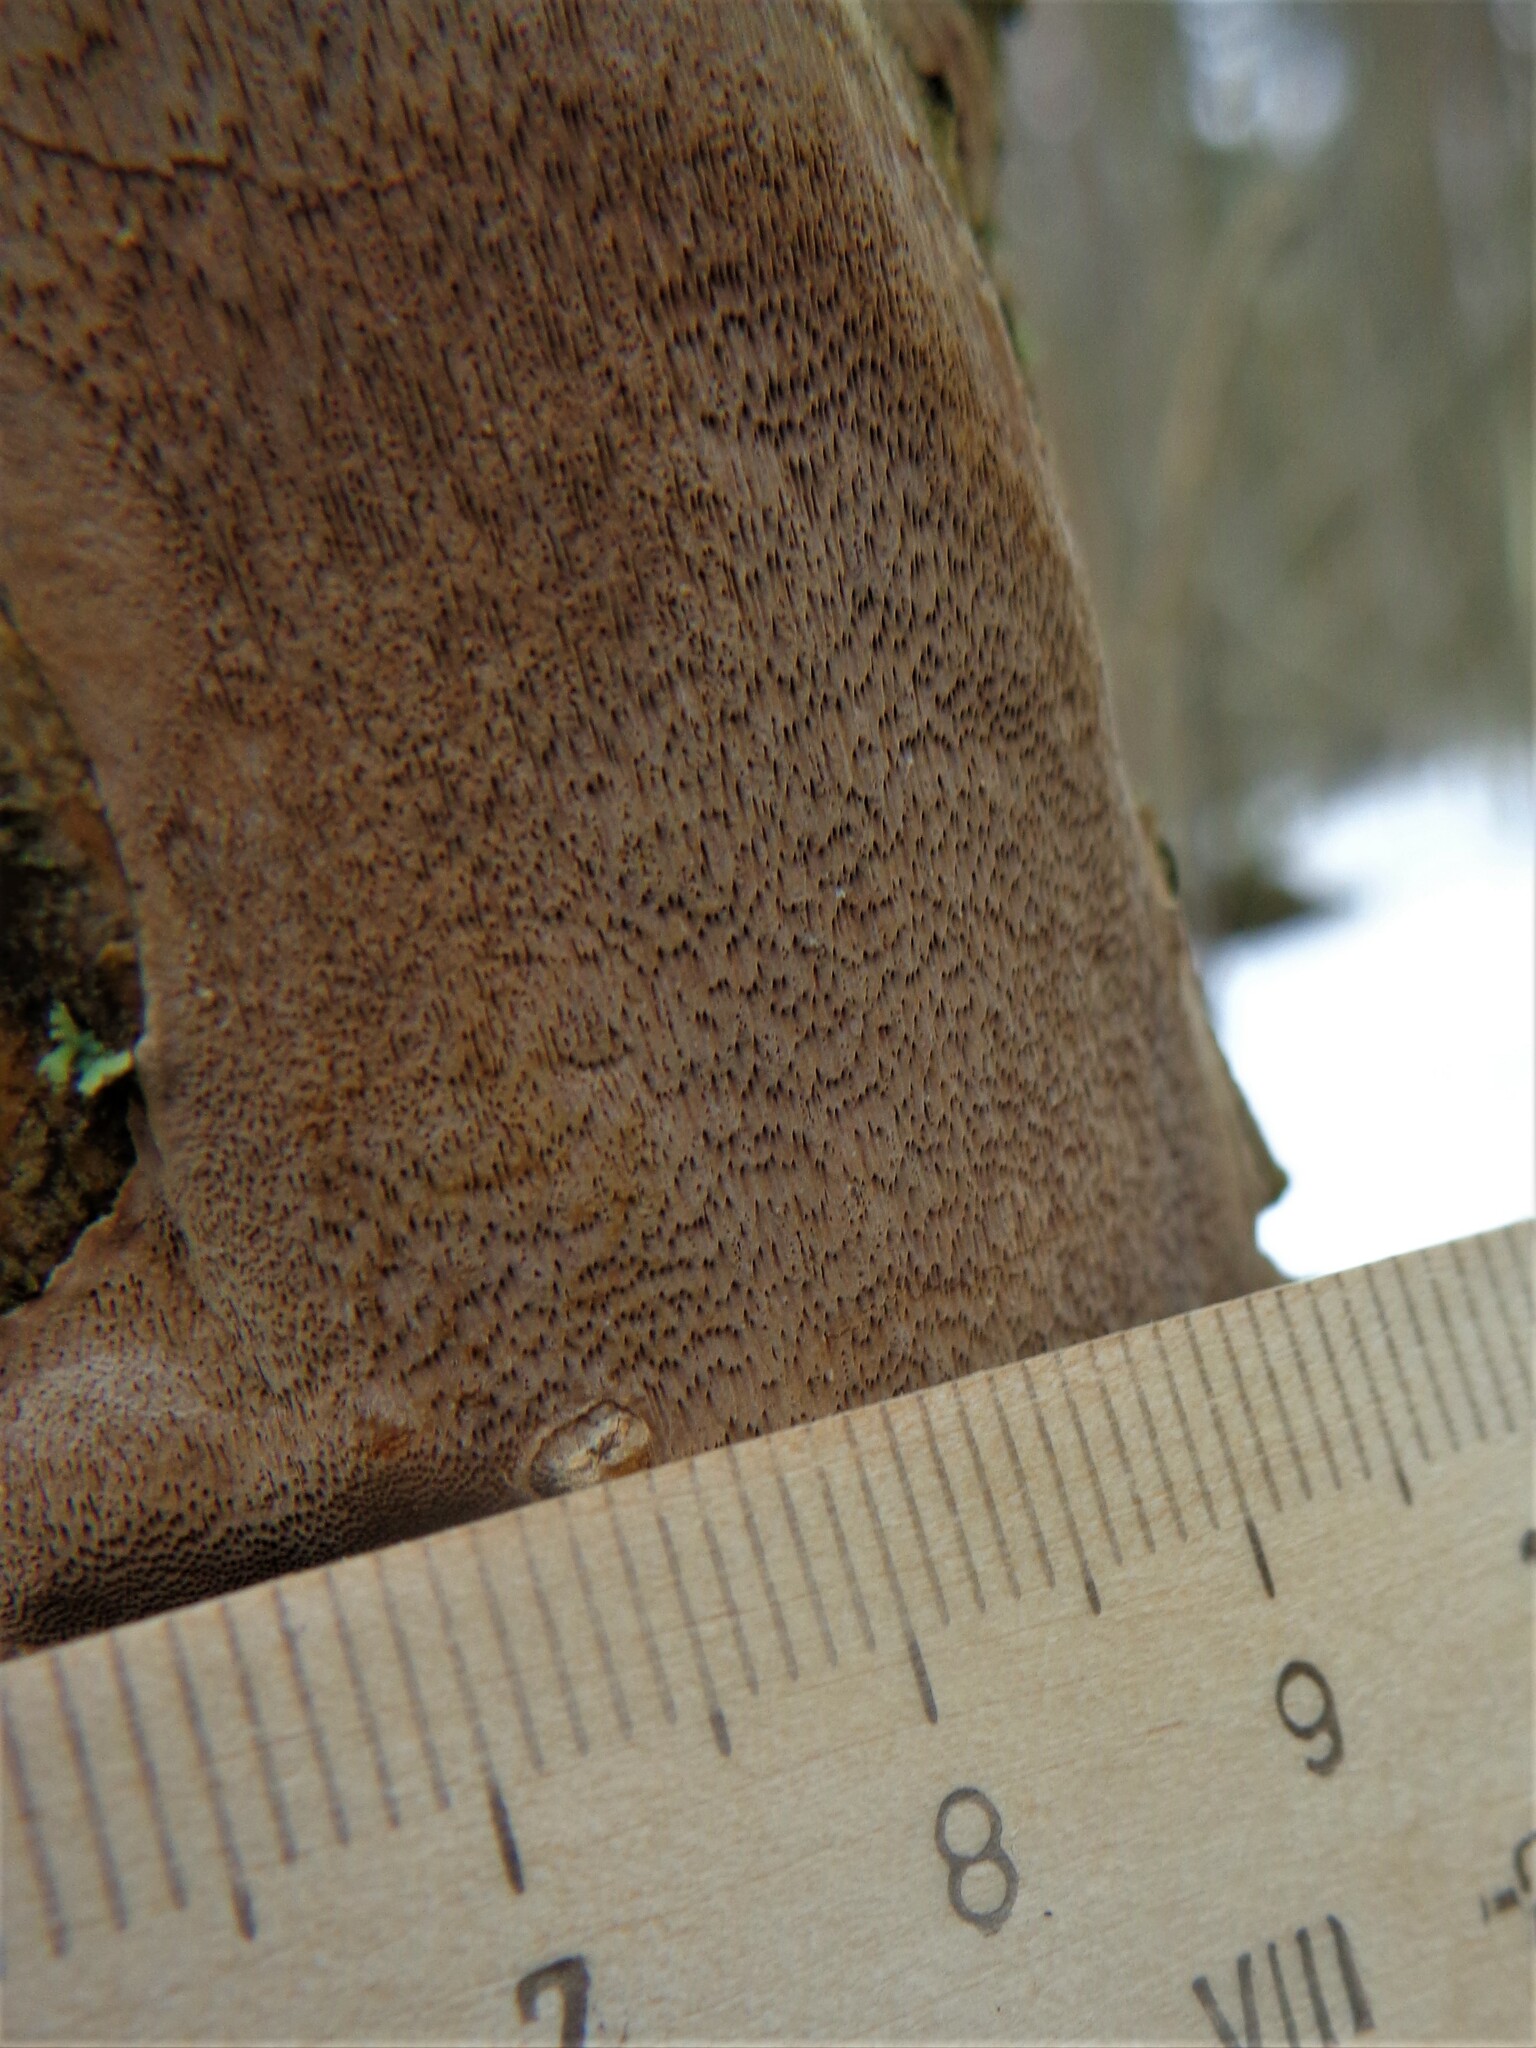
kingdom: Fungi
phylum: Basidiomycota
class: Agaricomycetes
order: Hymenochaetales
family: Hymenochaetaceae
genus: Fomitiporia
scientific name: Fomitiporia punctata
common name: Elbowpatch crust
